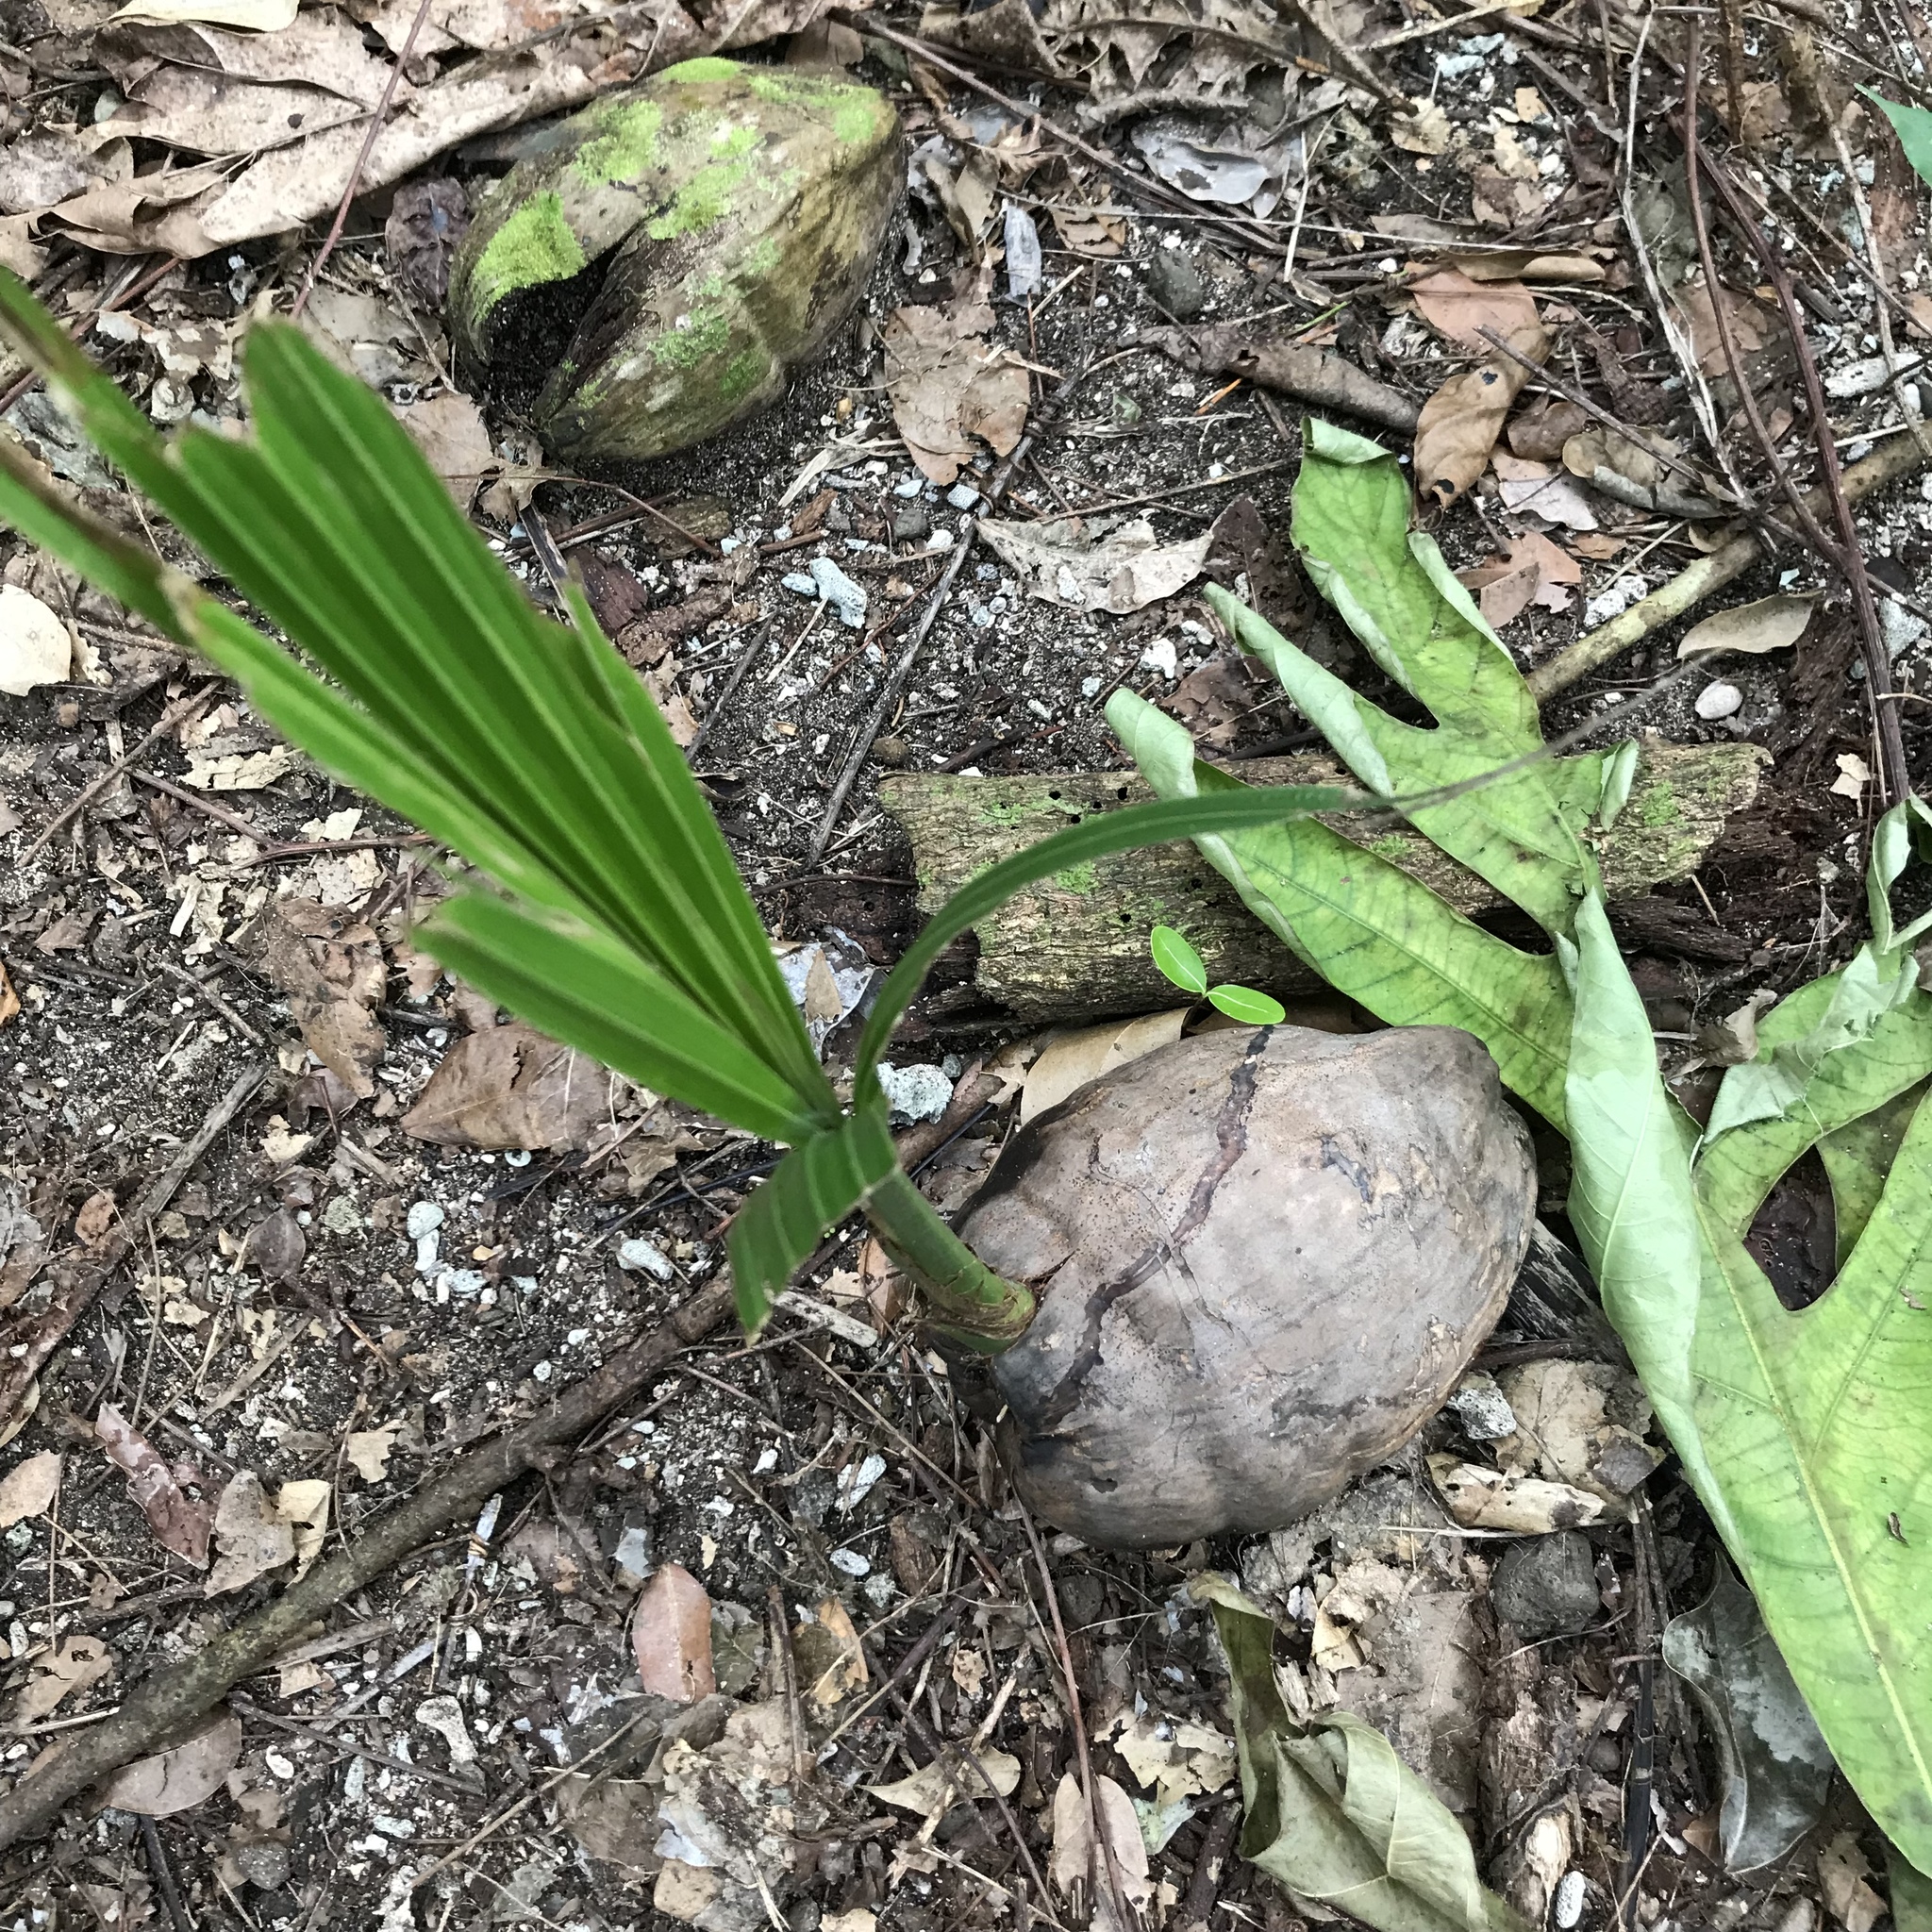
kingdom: Plantae
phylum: Tracheophyta
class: Liliopsida
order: Arecales
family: Arecaceae
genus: Cocos
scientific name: Cocos nucifera
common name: Coconut palm
